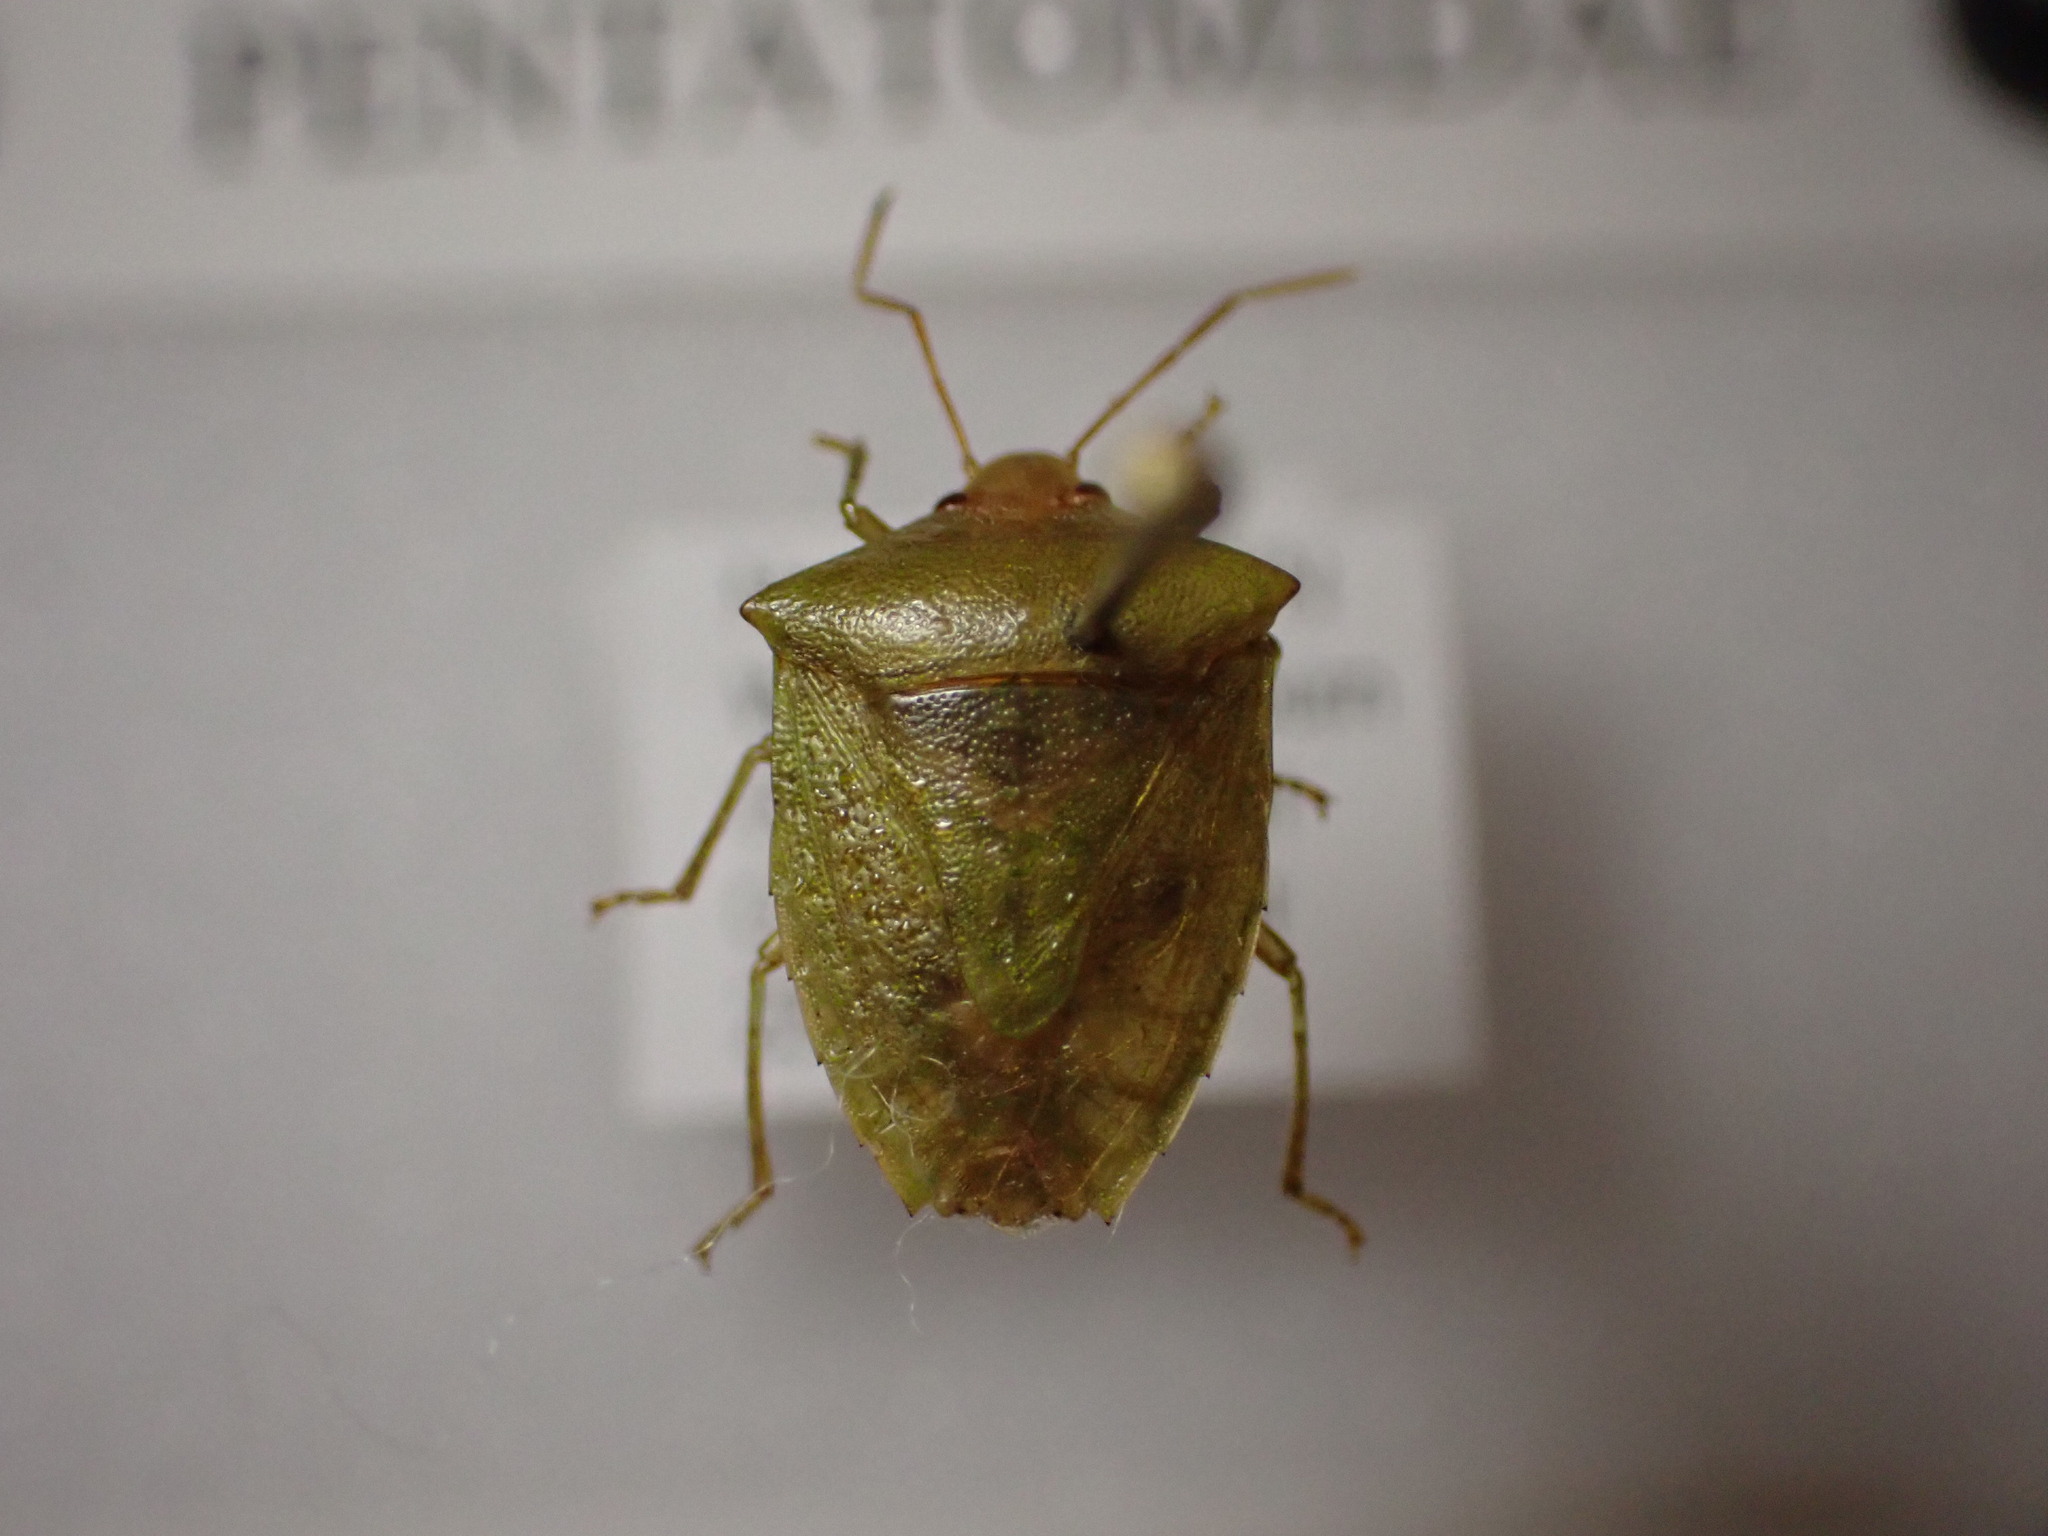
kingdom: Animalia
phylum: Arthropoda
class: Insecta
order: Hemiptera
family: Pentatomidae
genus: Cuspicona
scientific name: Cuspicona simplex
